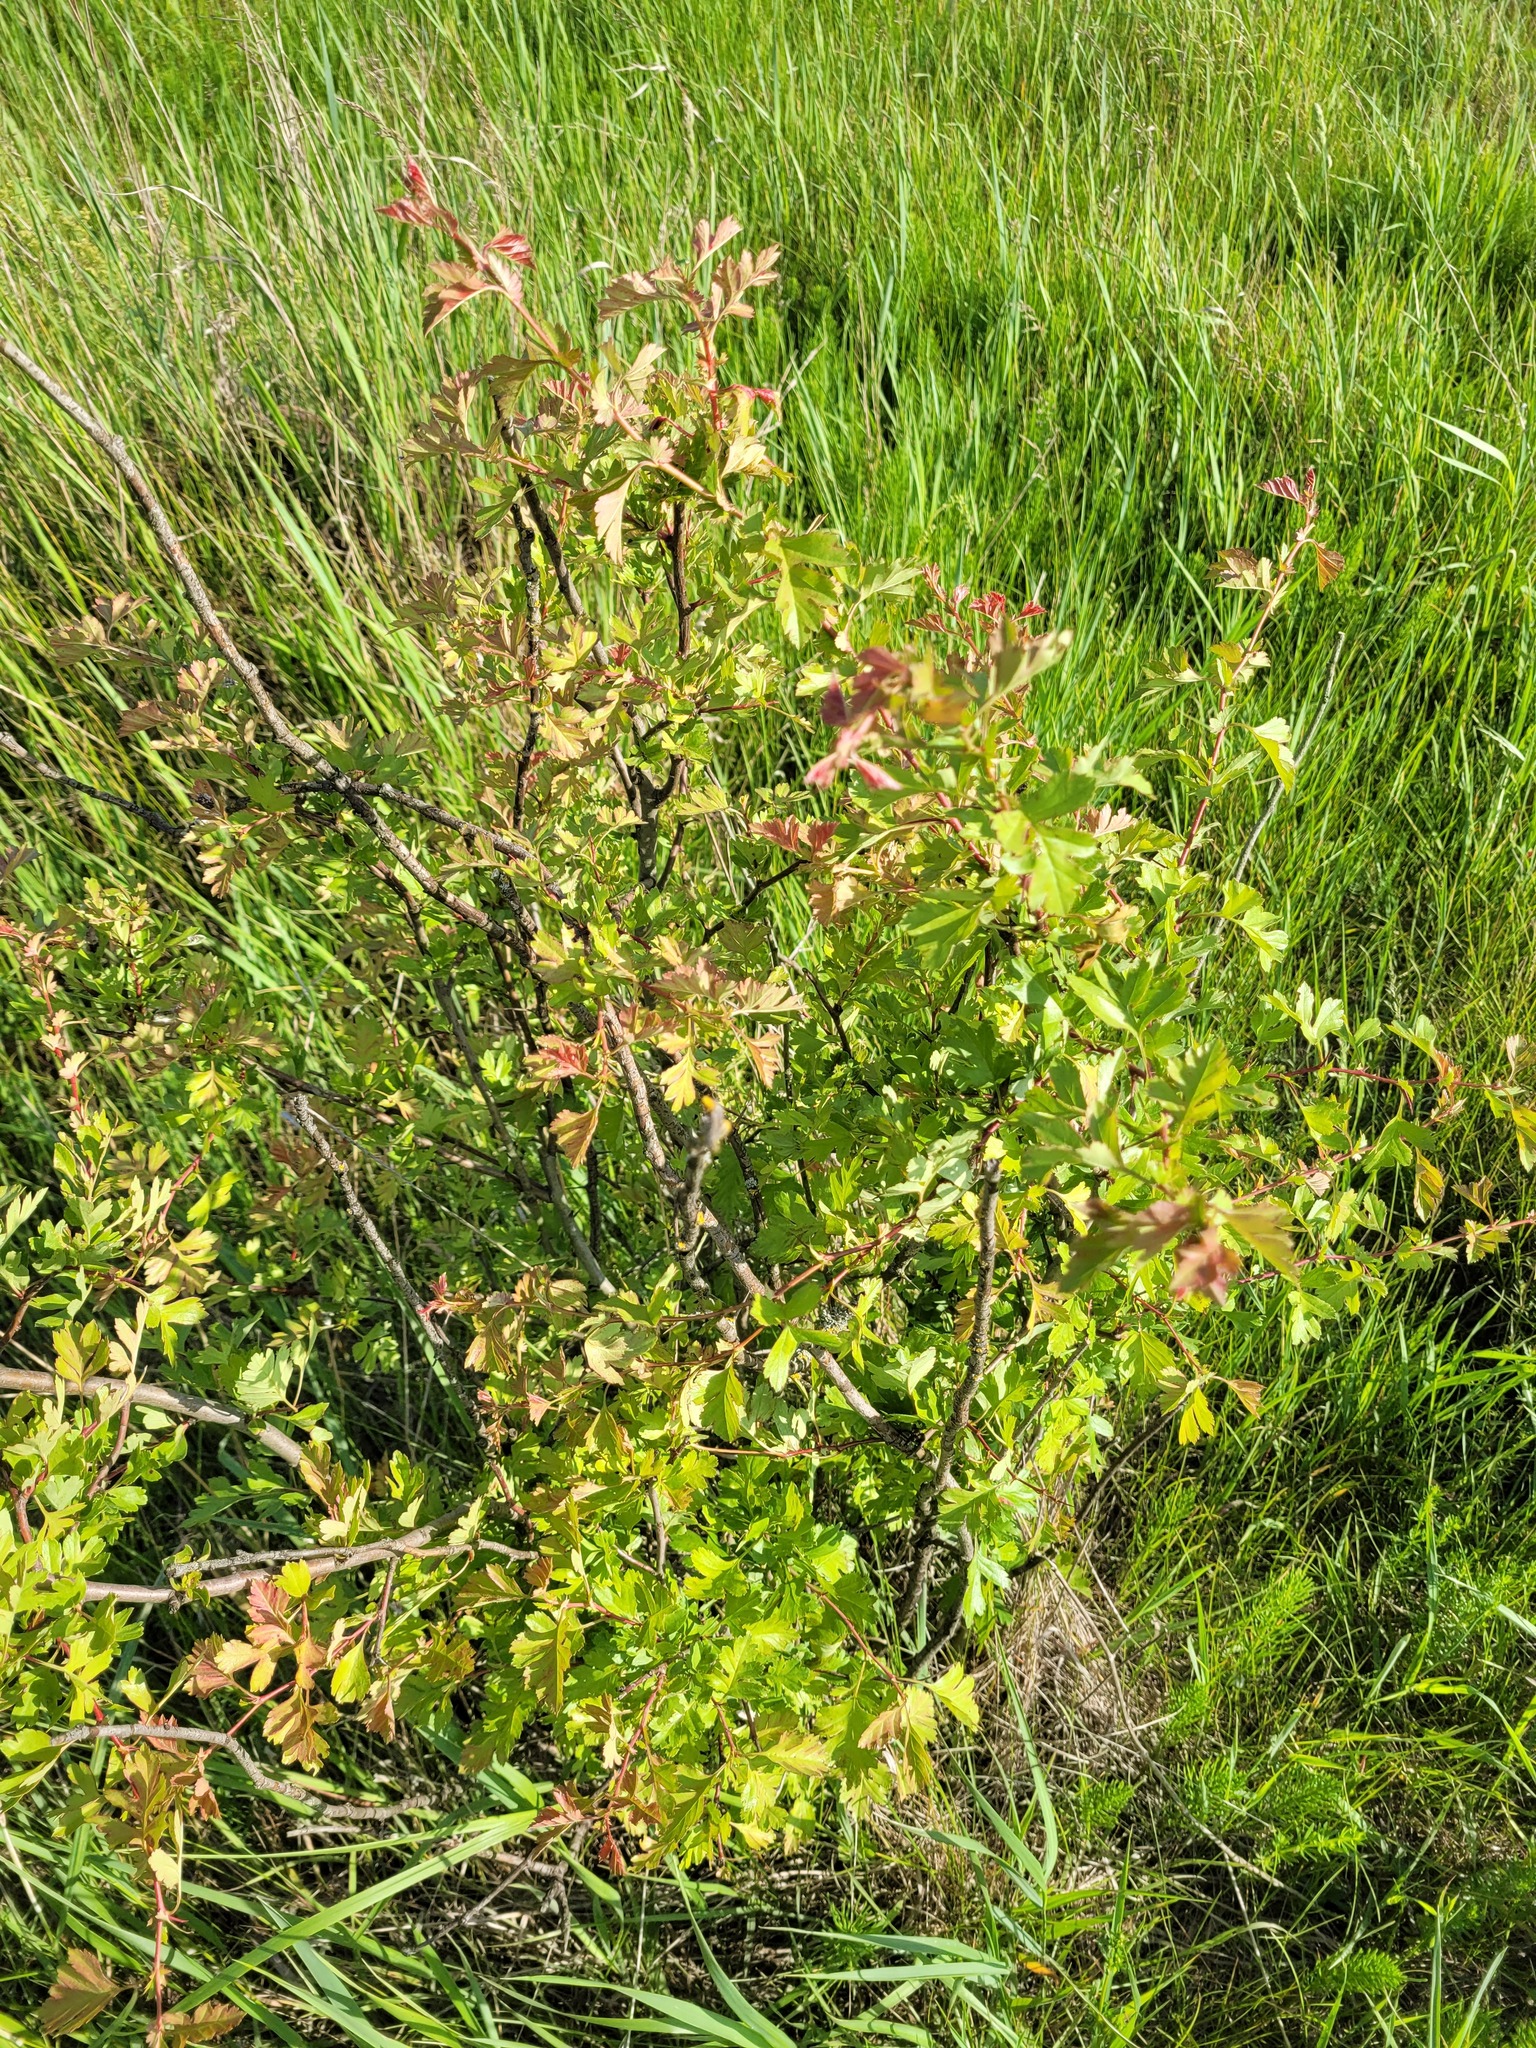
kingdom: Plantae
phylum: Tracheophyta
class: Magnoliopsida
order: Rosales
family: Rosaceae
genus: Crataegus
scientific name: Crataegus monogyna
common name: Hawthorn
